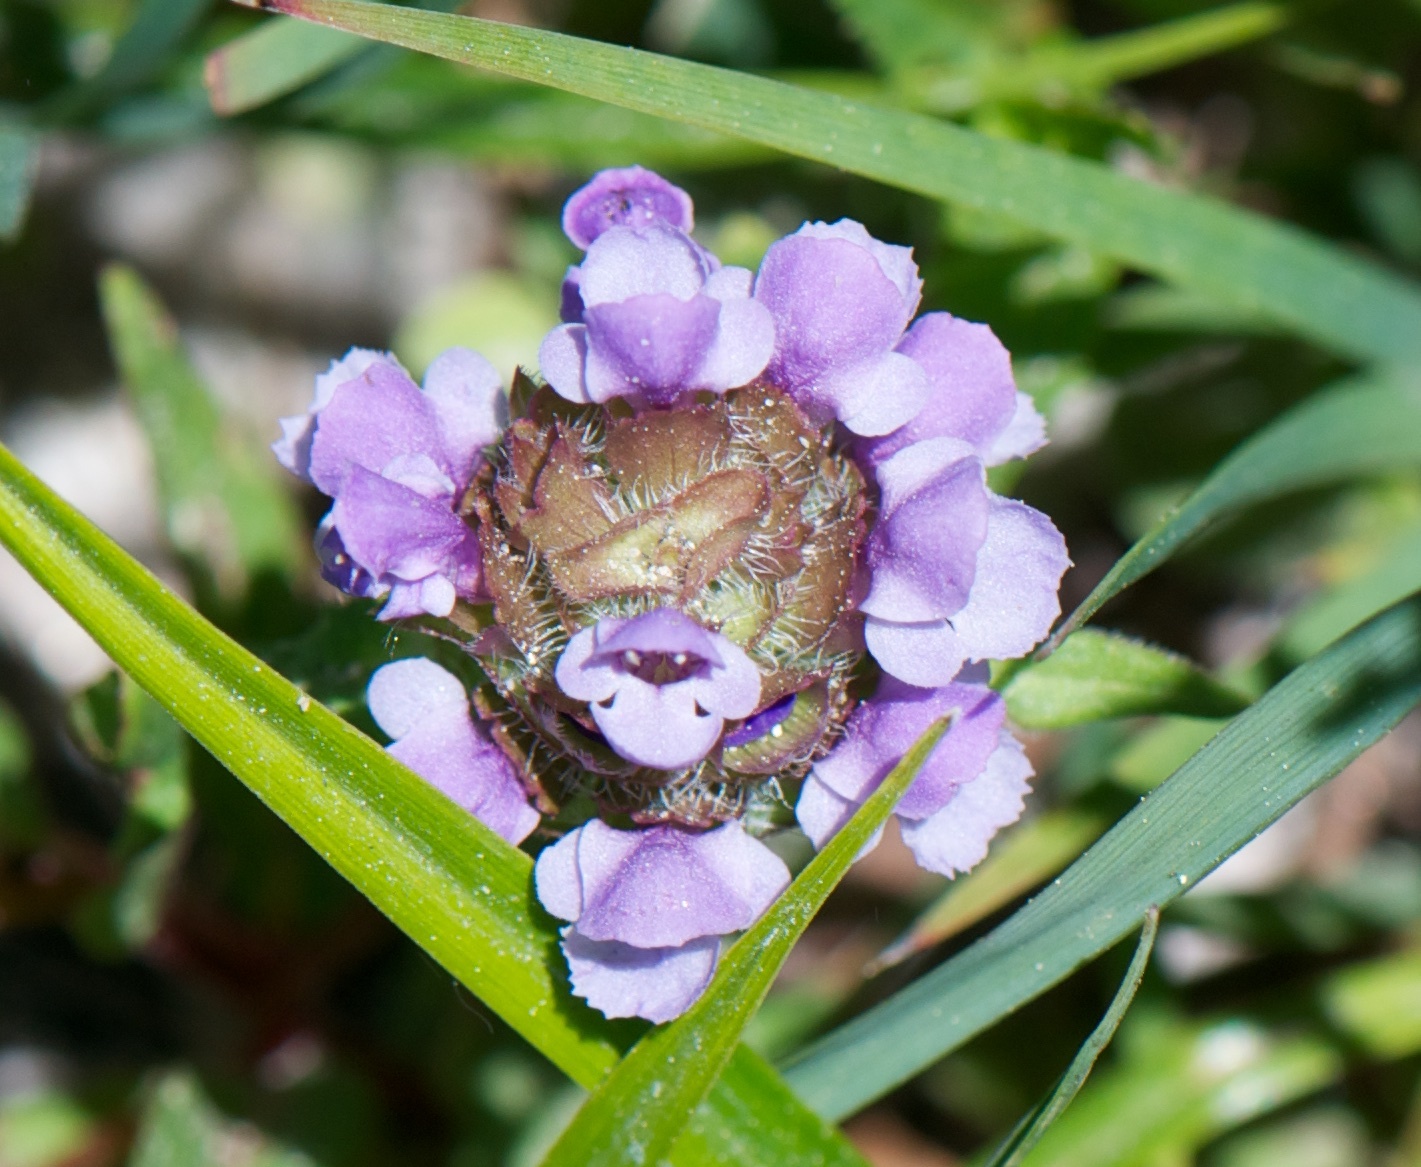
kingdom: Plantae
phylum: Tracheophyta
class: Magnoliopsida
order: Lamiales
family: Lamiaceae
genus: Prunella
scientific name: Prunella vulgaris
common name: Heal-all
